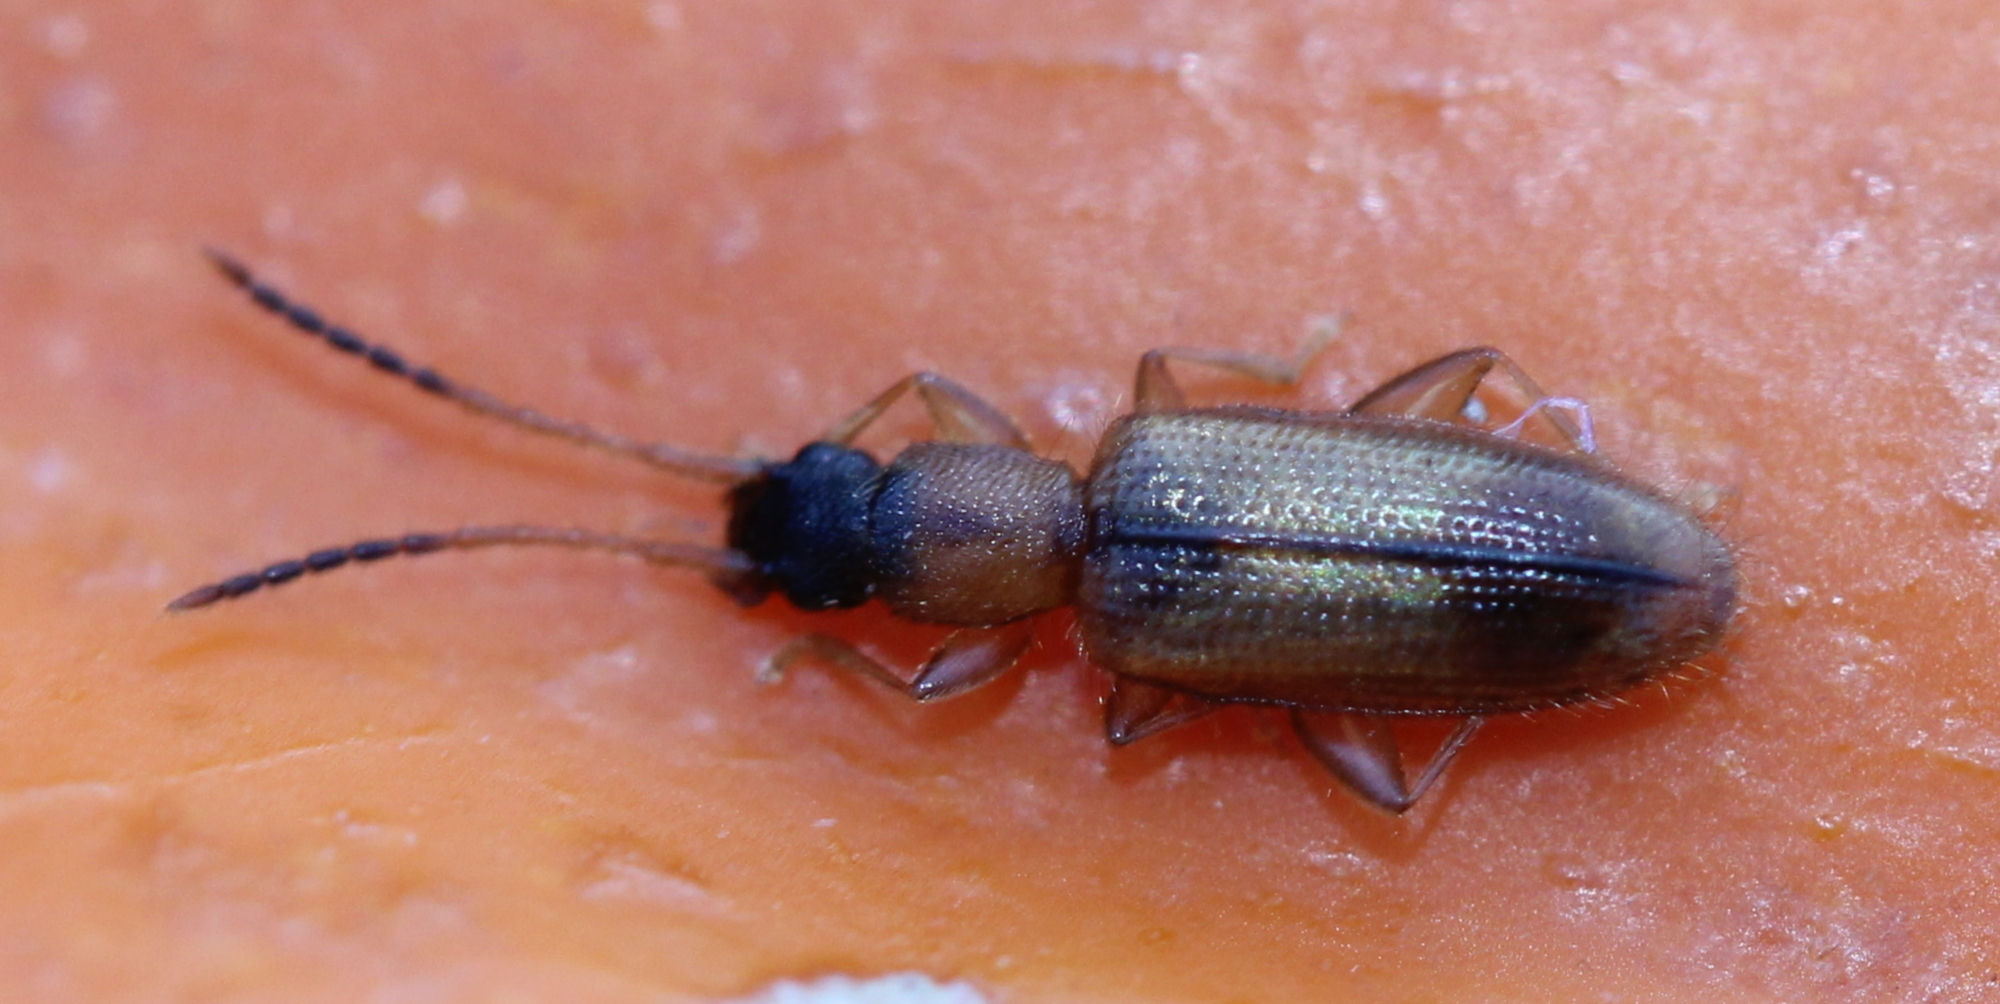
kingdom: Animalia
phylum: Arthropoda
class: Insecta
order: Coleoptera
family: Silvanidae
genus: Telephanus
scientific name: Telephanus velox
